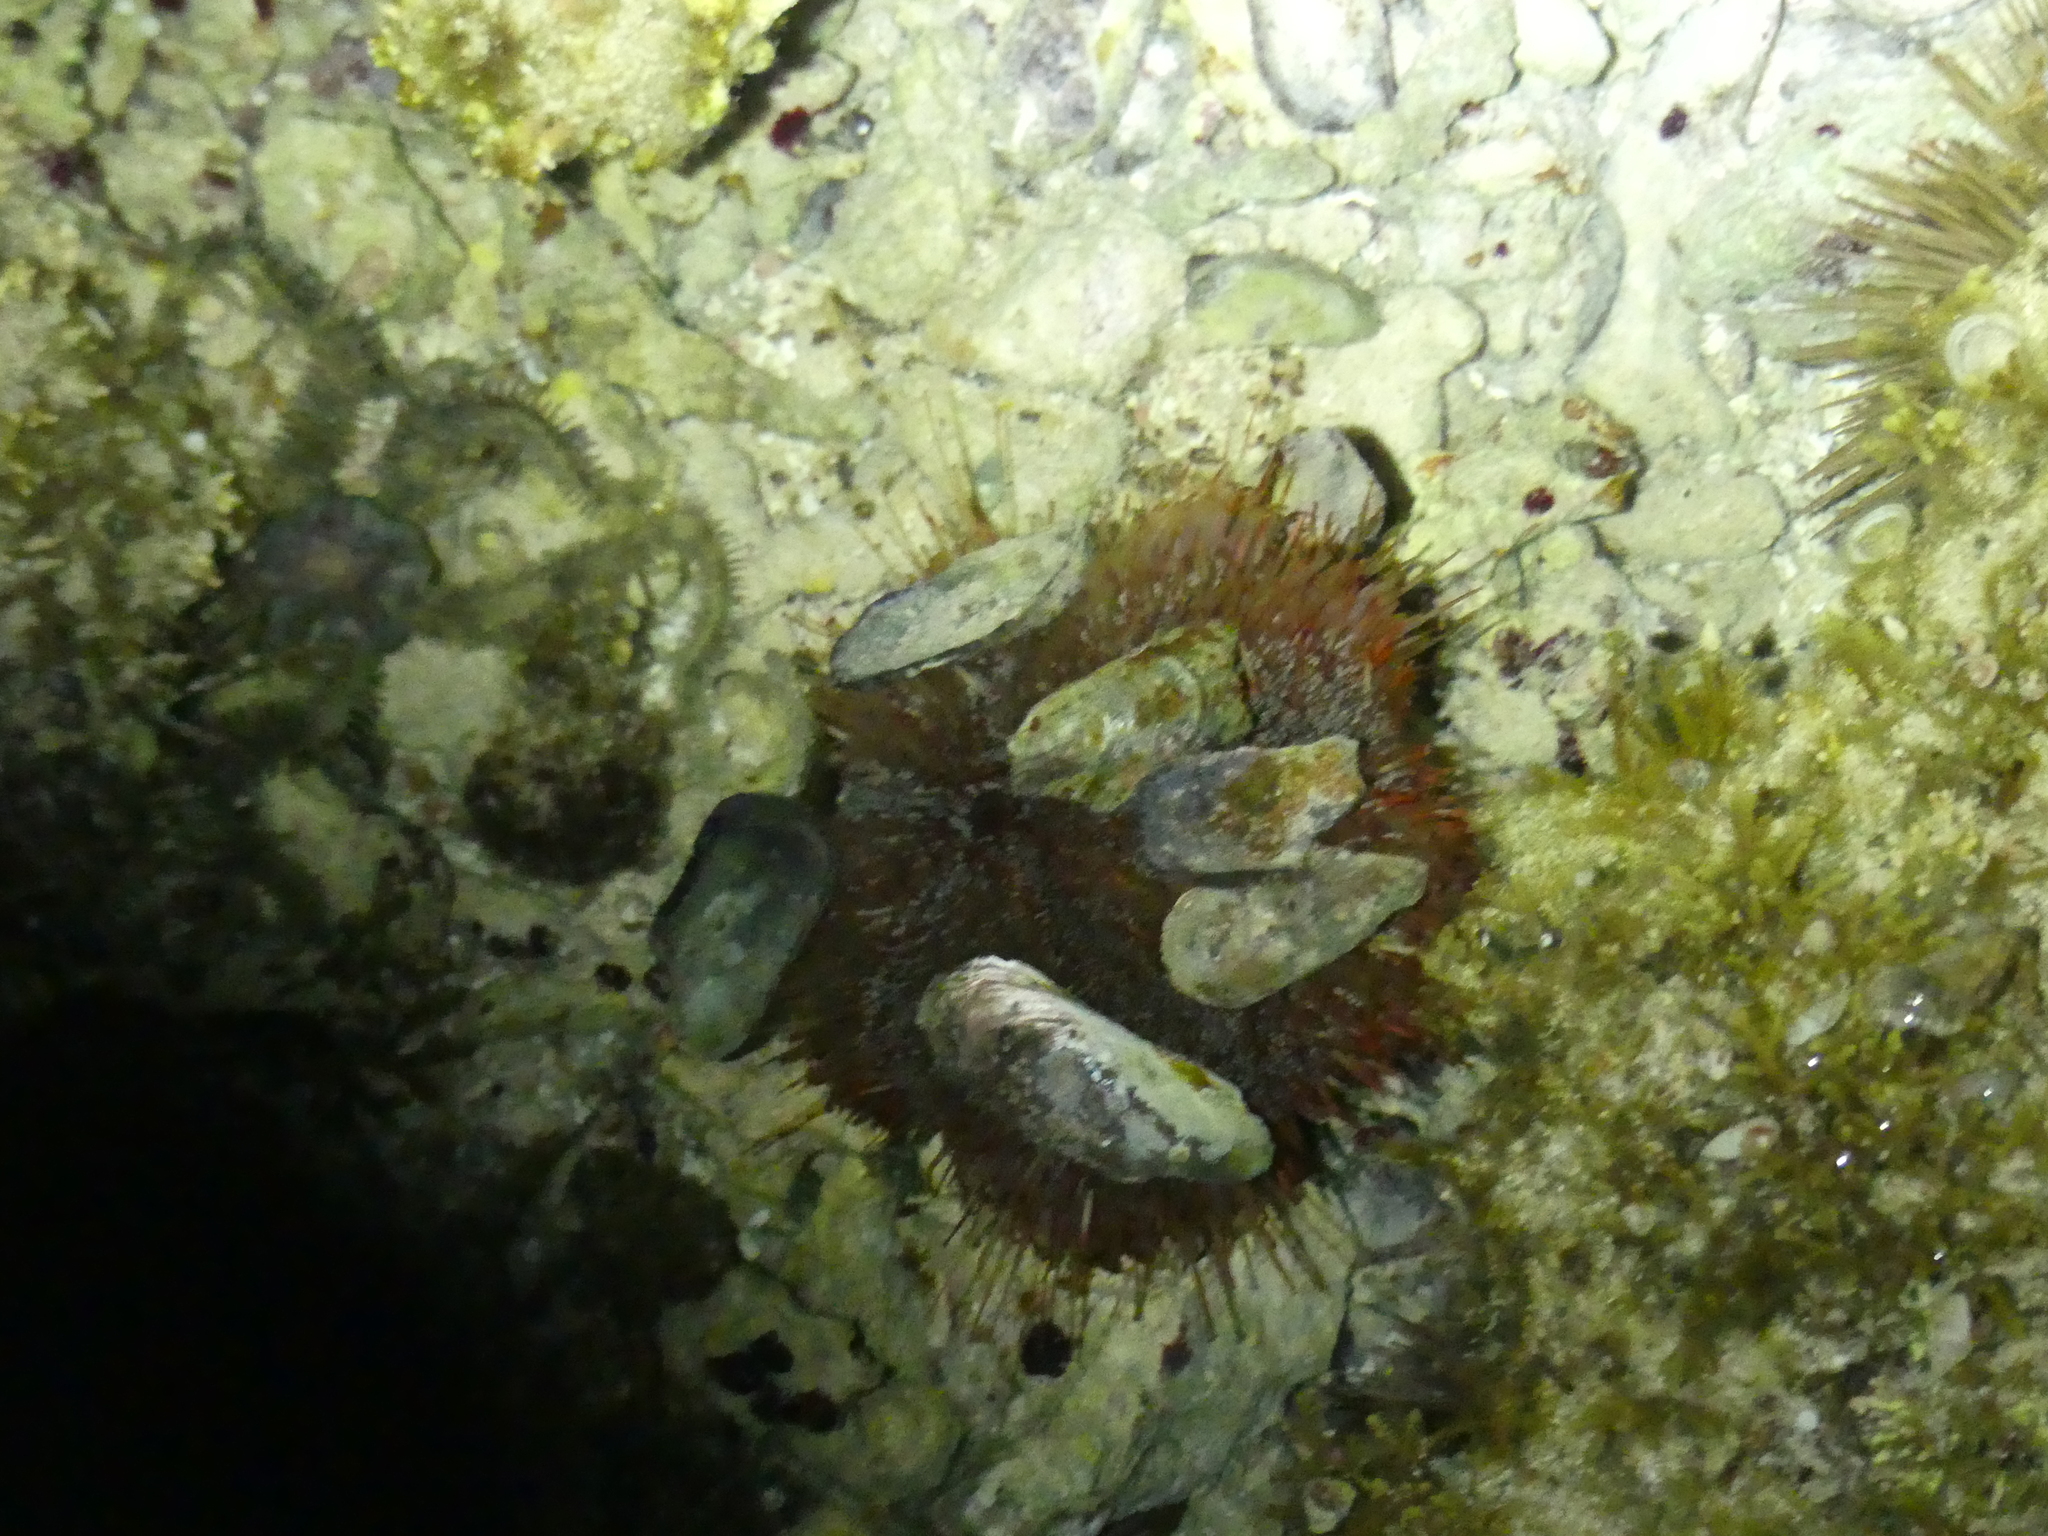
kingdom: Animalia
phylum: Echinodermata
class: Echinoidea
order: Camarodonta
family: Toxopneustidae
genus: Tripneustes
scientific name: Tripneustes gratilla
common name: Bischofsmützenseeigel
